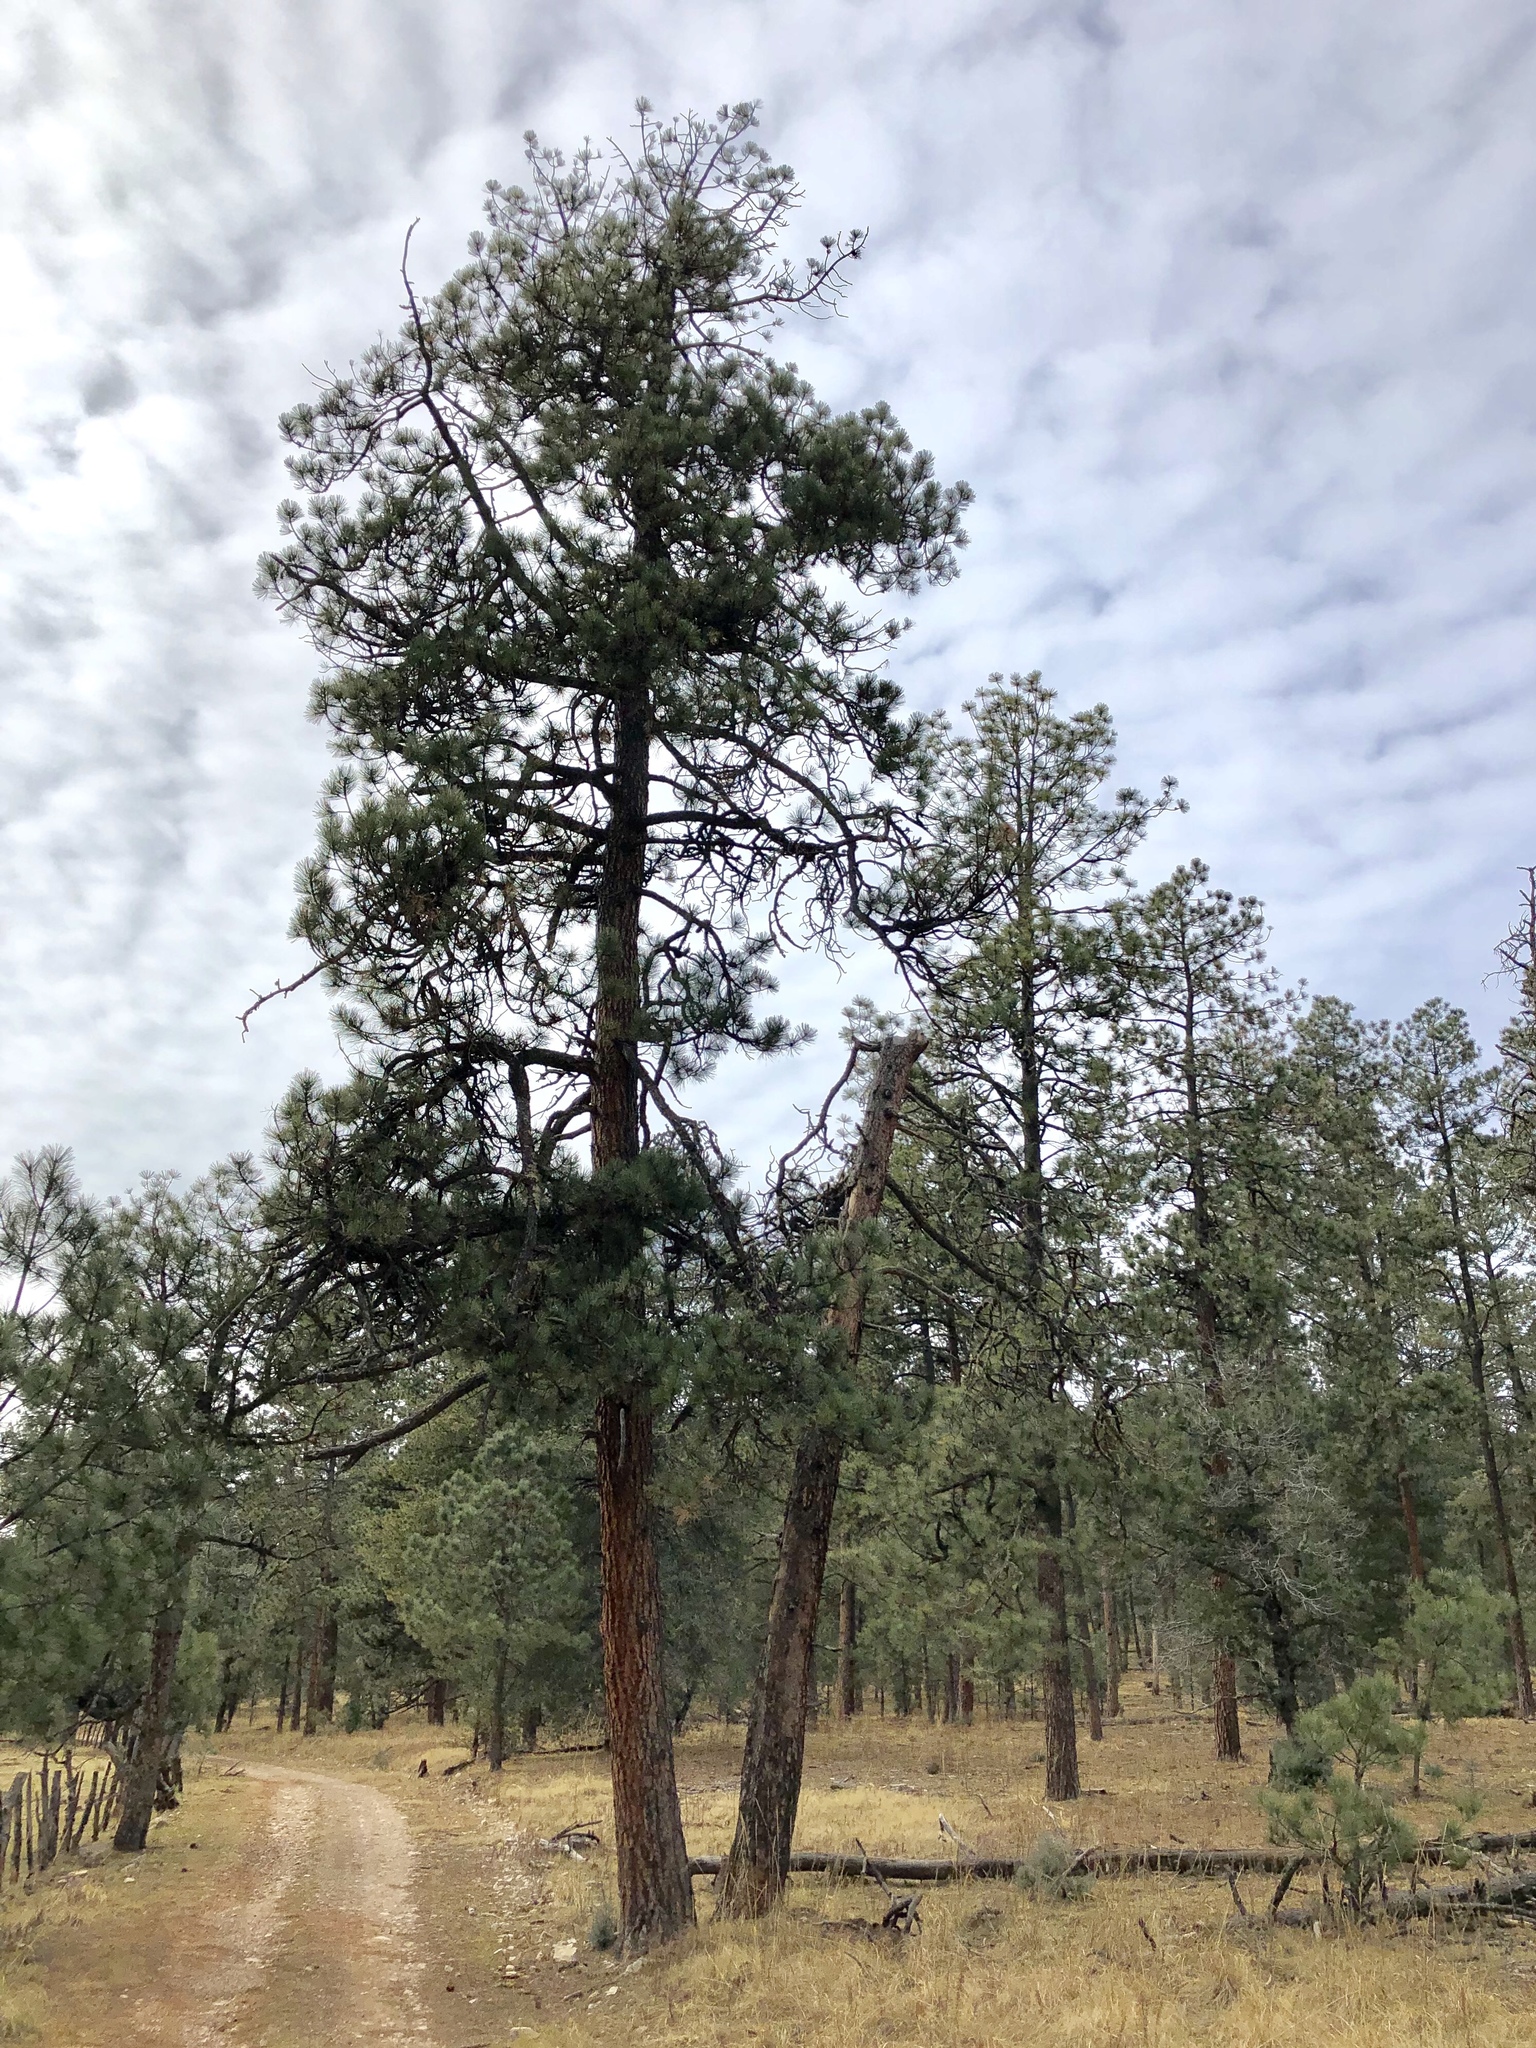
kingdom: Plantae
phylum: Tracheophyta
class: Pinopsida
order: Pinales
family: Pinaceae
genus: Pinus
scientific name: Pinus ponderosa
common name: Western yellow-pine
